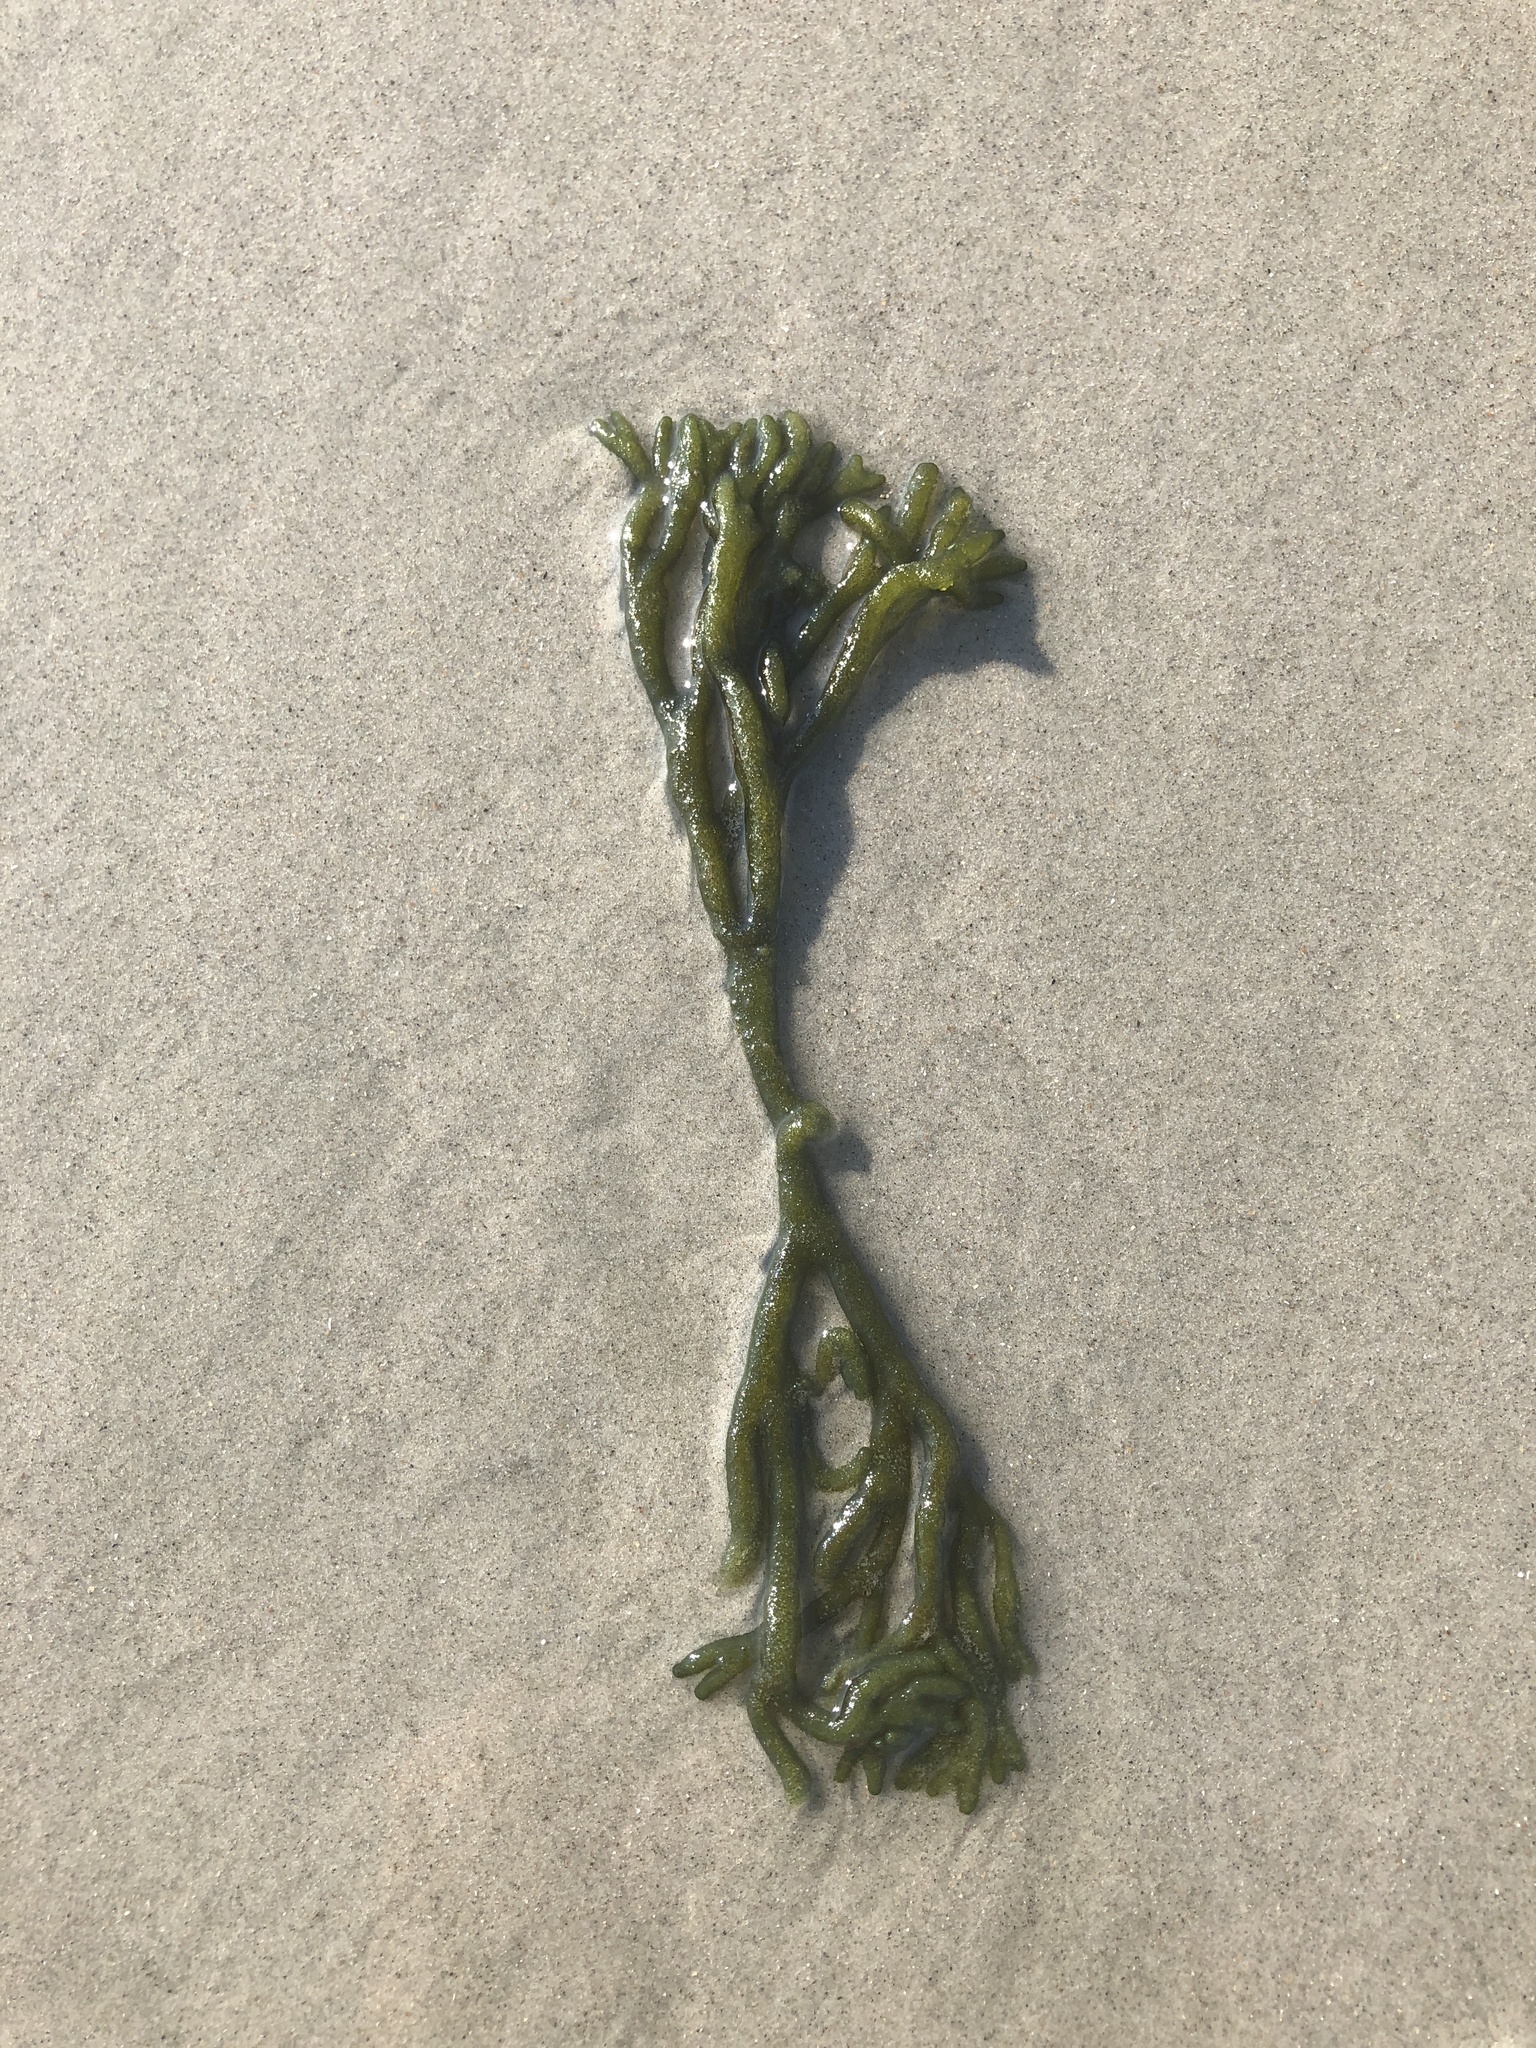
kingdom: Plantae
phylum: Chlorophyta
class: Ulvophyceae
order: Bryopsidales
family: Codiaceae
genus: Codium
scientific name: Codium fragile
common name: Dead man's fingers
